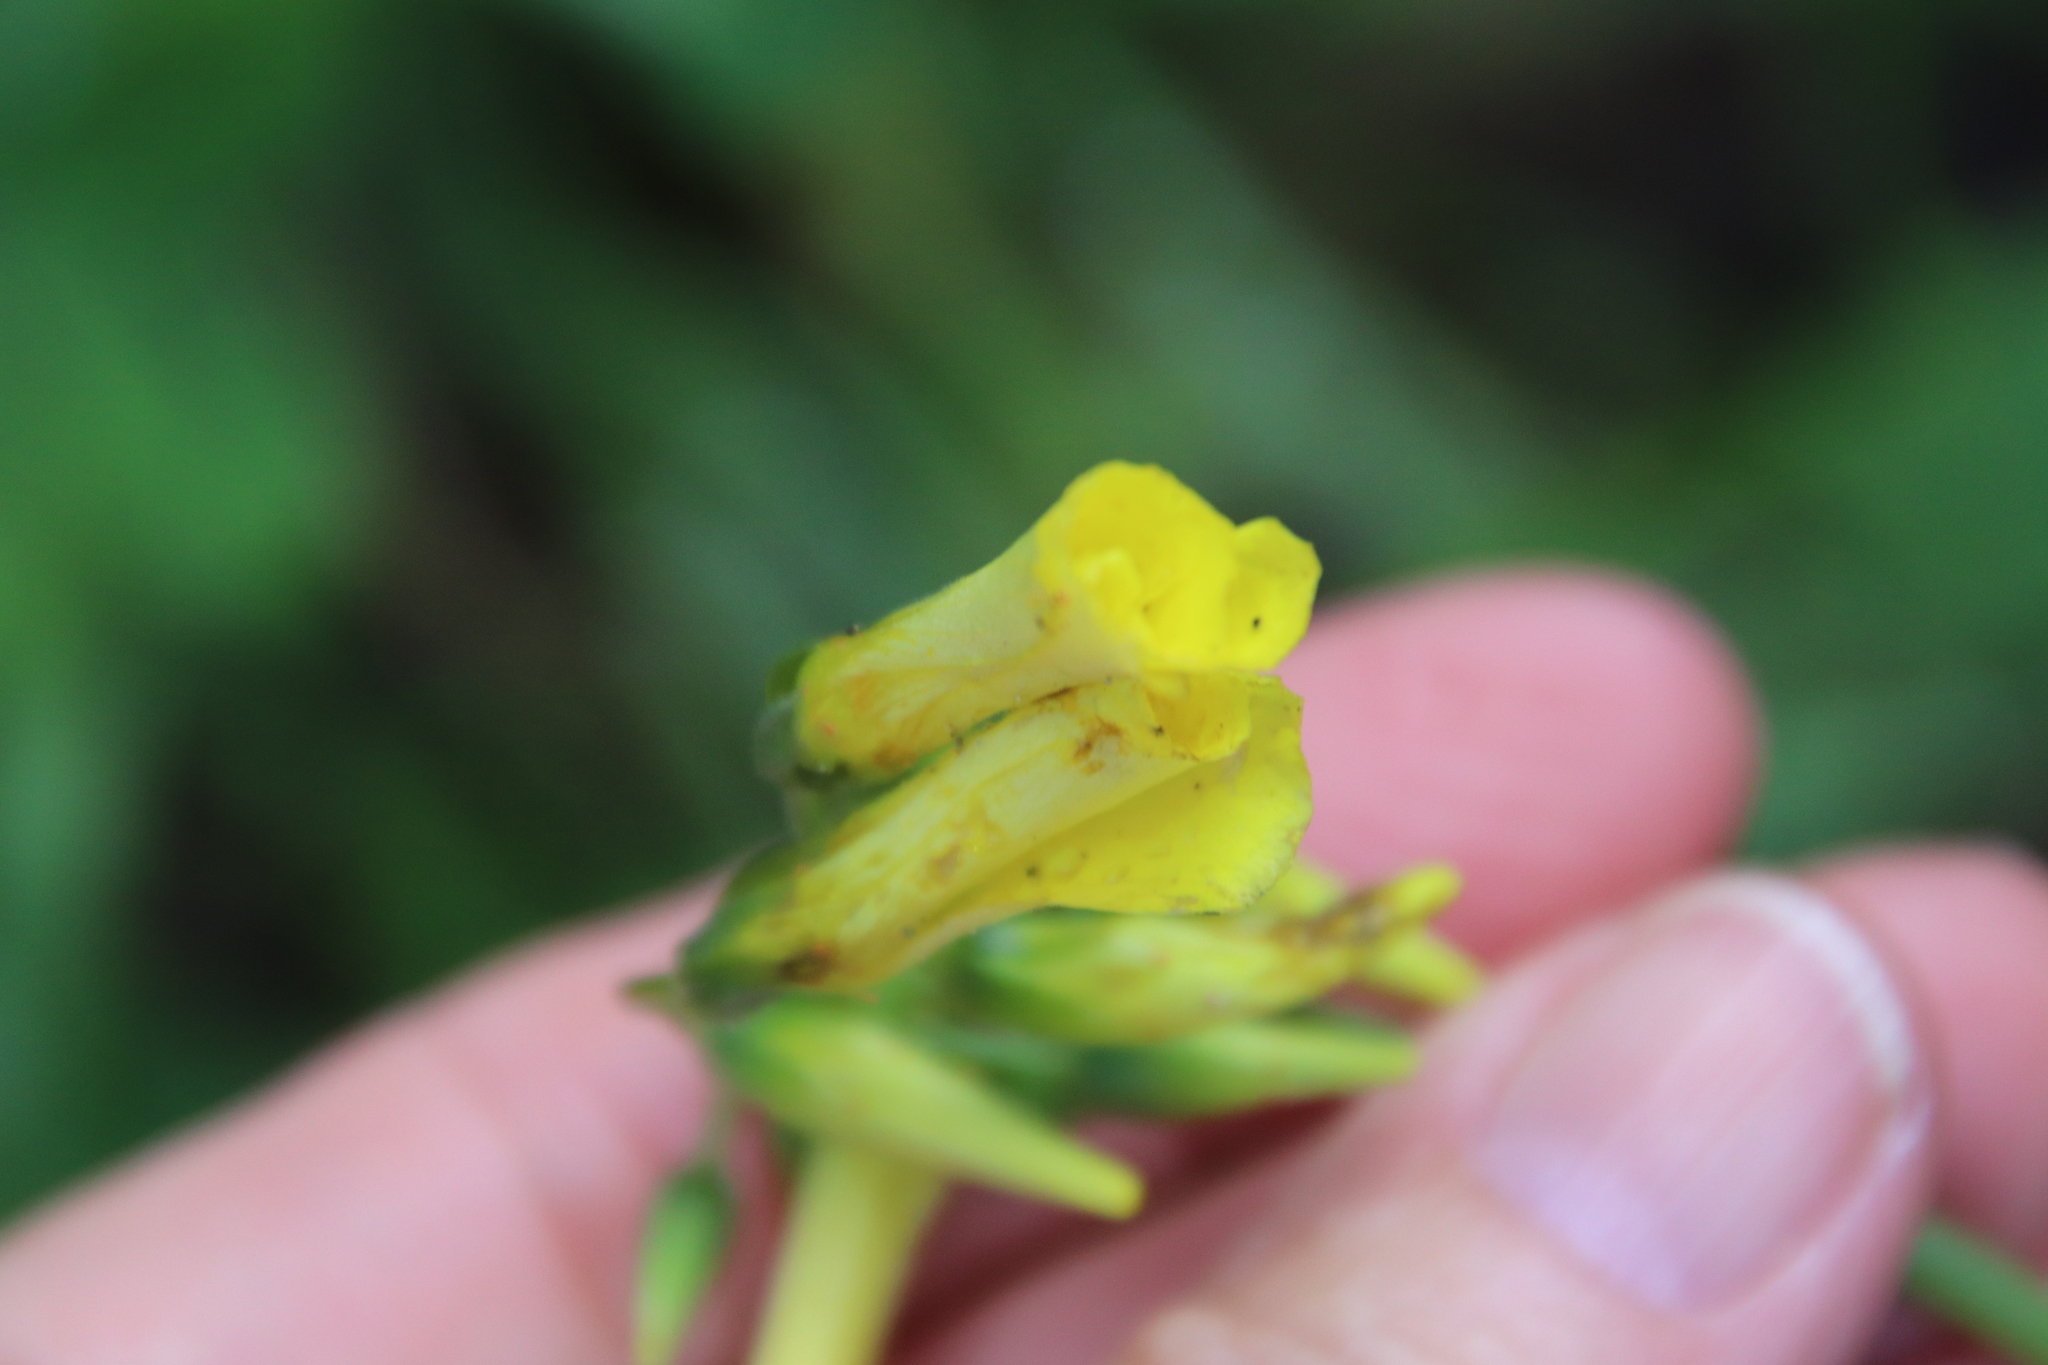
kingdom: Plantae
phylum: Tracheophyta
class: Magnoliopsida
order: Oxalidales
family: Oxalidaceae
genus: Oxalis
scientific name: Oxalis pes-caprae
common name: Bermuda-buttercup
